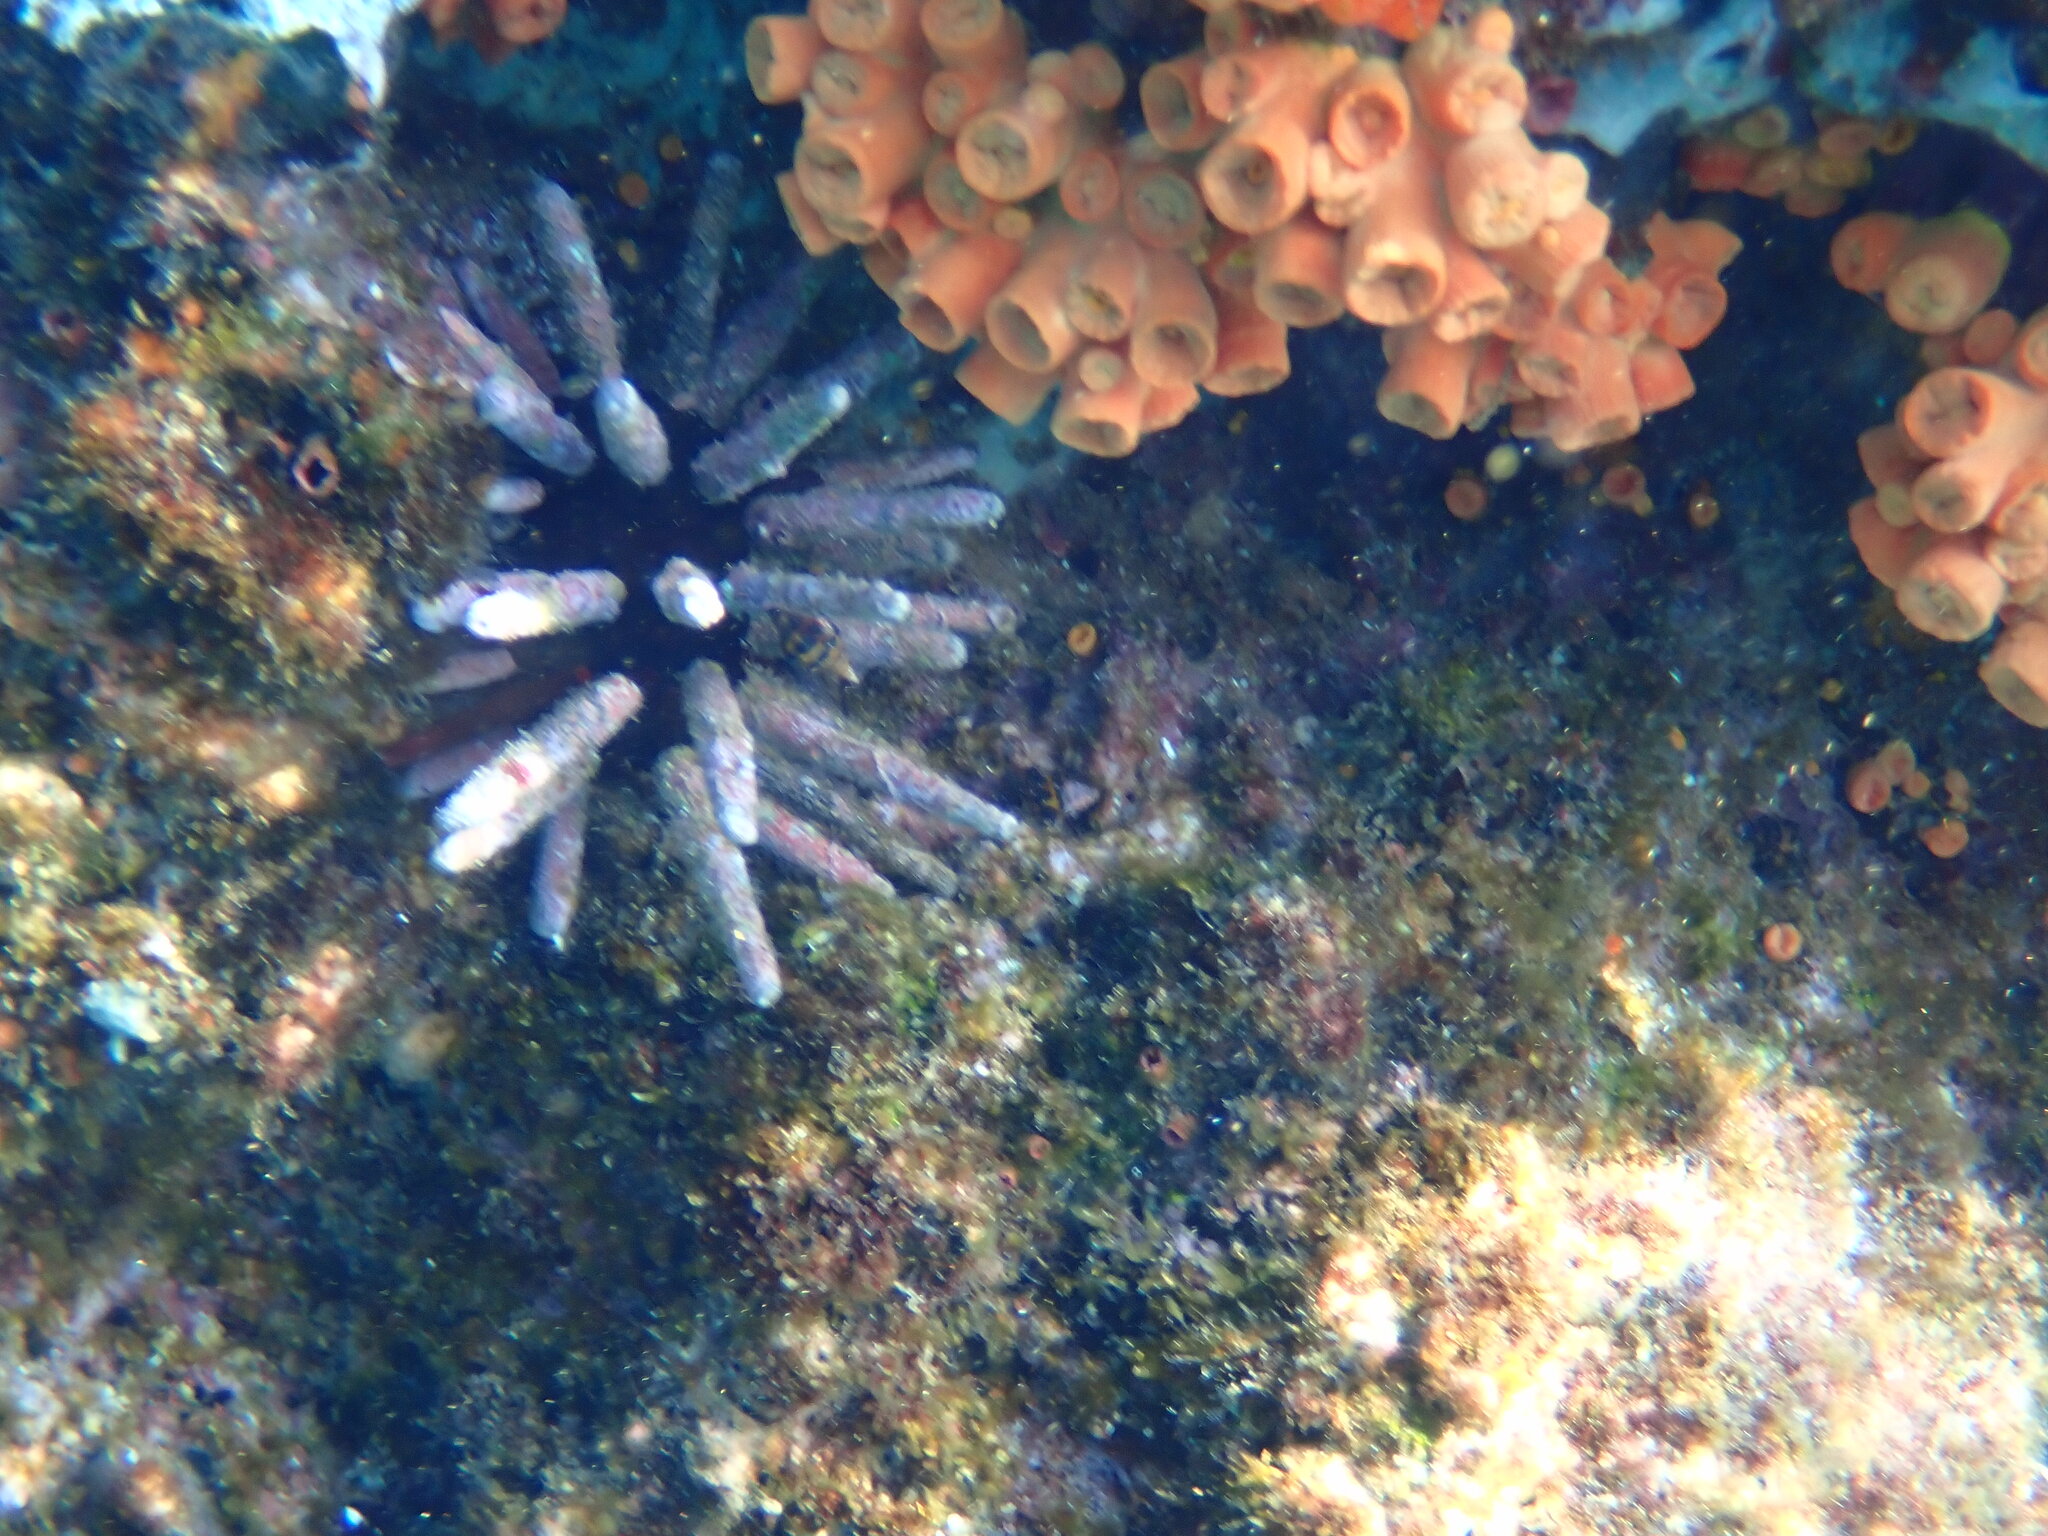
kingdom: Animalia
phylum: Echinodermata
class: Echinoidea
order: Cidaroida
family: Cidaridae
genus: Eucidaris
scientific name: Eucidaris galapagensis
